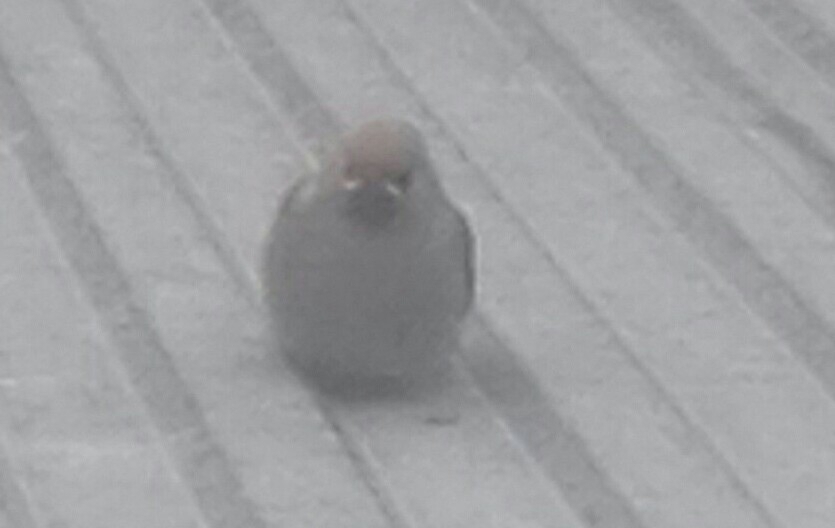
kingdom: Animalia
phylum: Chordata
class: Aves
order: Passeriformes
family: Bombycillidae
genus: Bombycilla
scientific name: Bombycilla garrulus
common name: Bohemian waxwing
